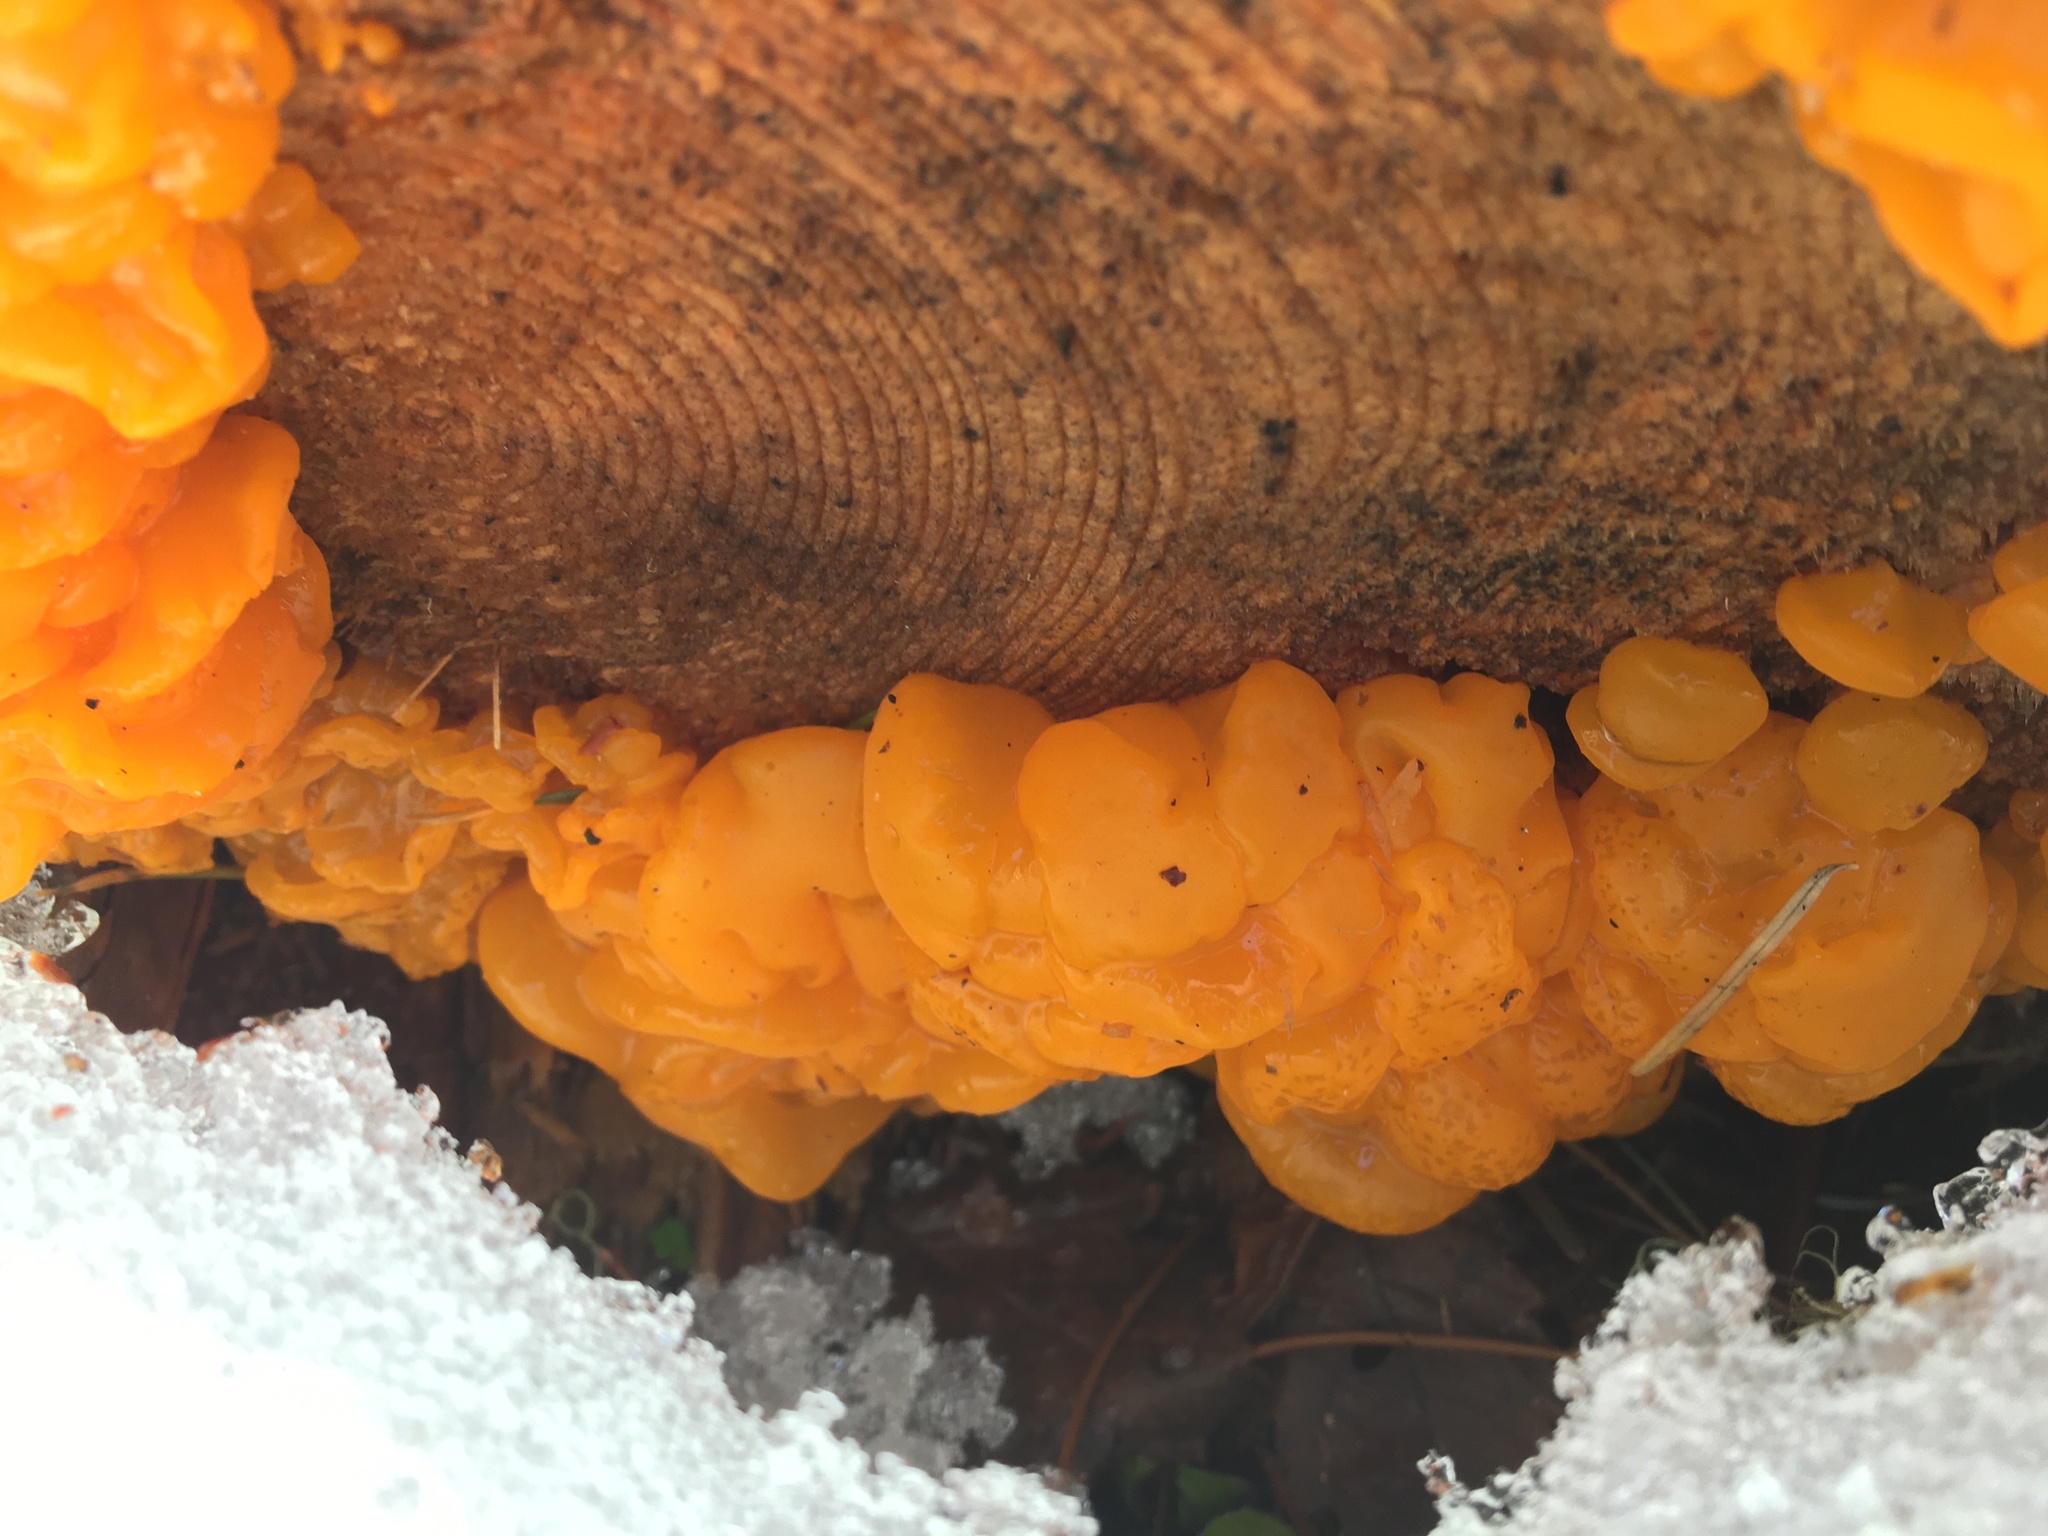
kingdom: Fungi
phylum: Basidiomycota
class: Dacrymycetes
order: Dacrymycetales
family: Dacrymycetaceae
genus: Dacrymyces
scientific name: Dacrymyces chrysospermus
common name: Orange jelly spot
